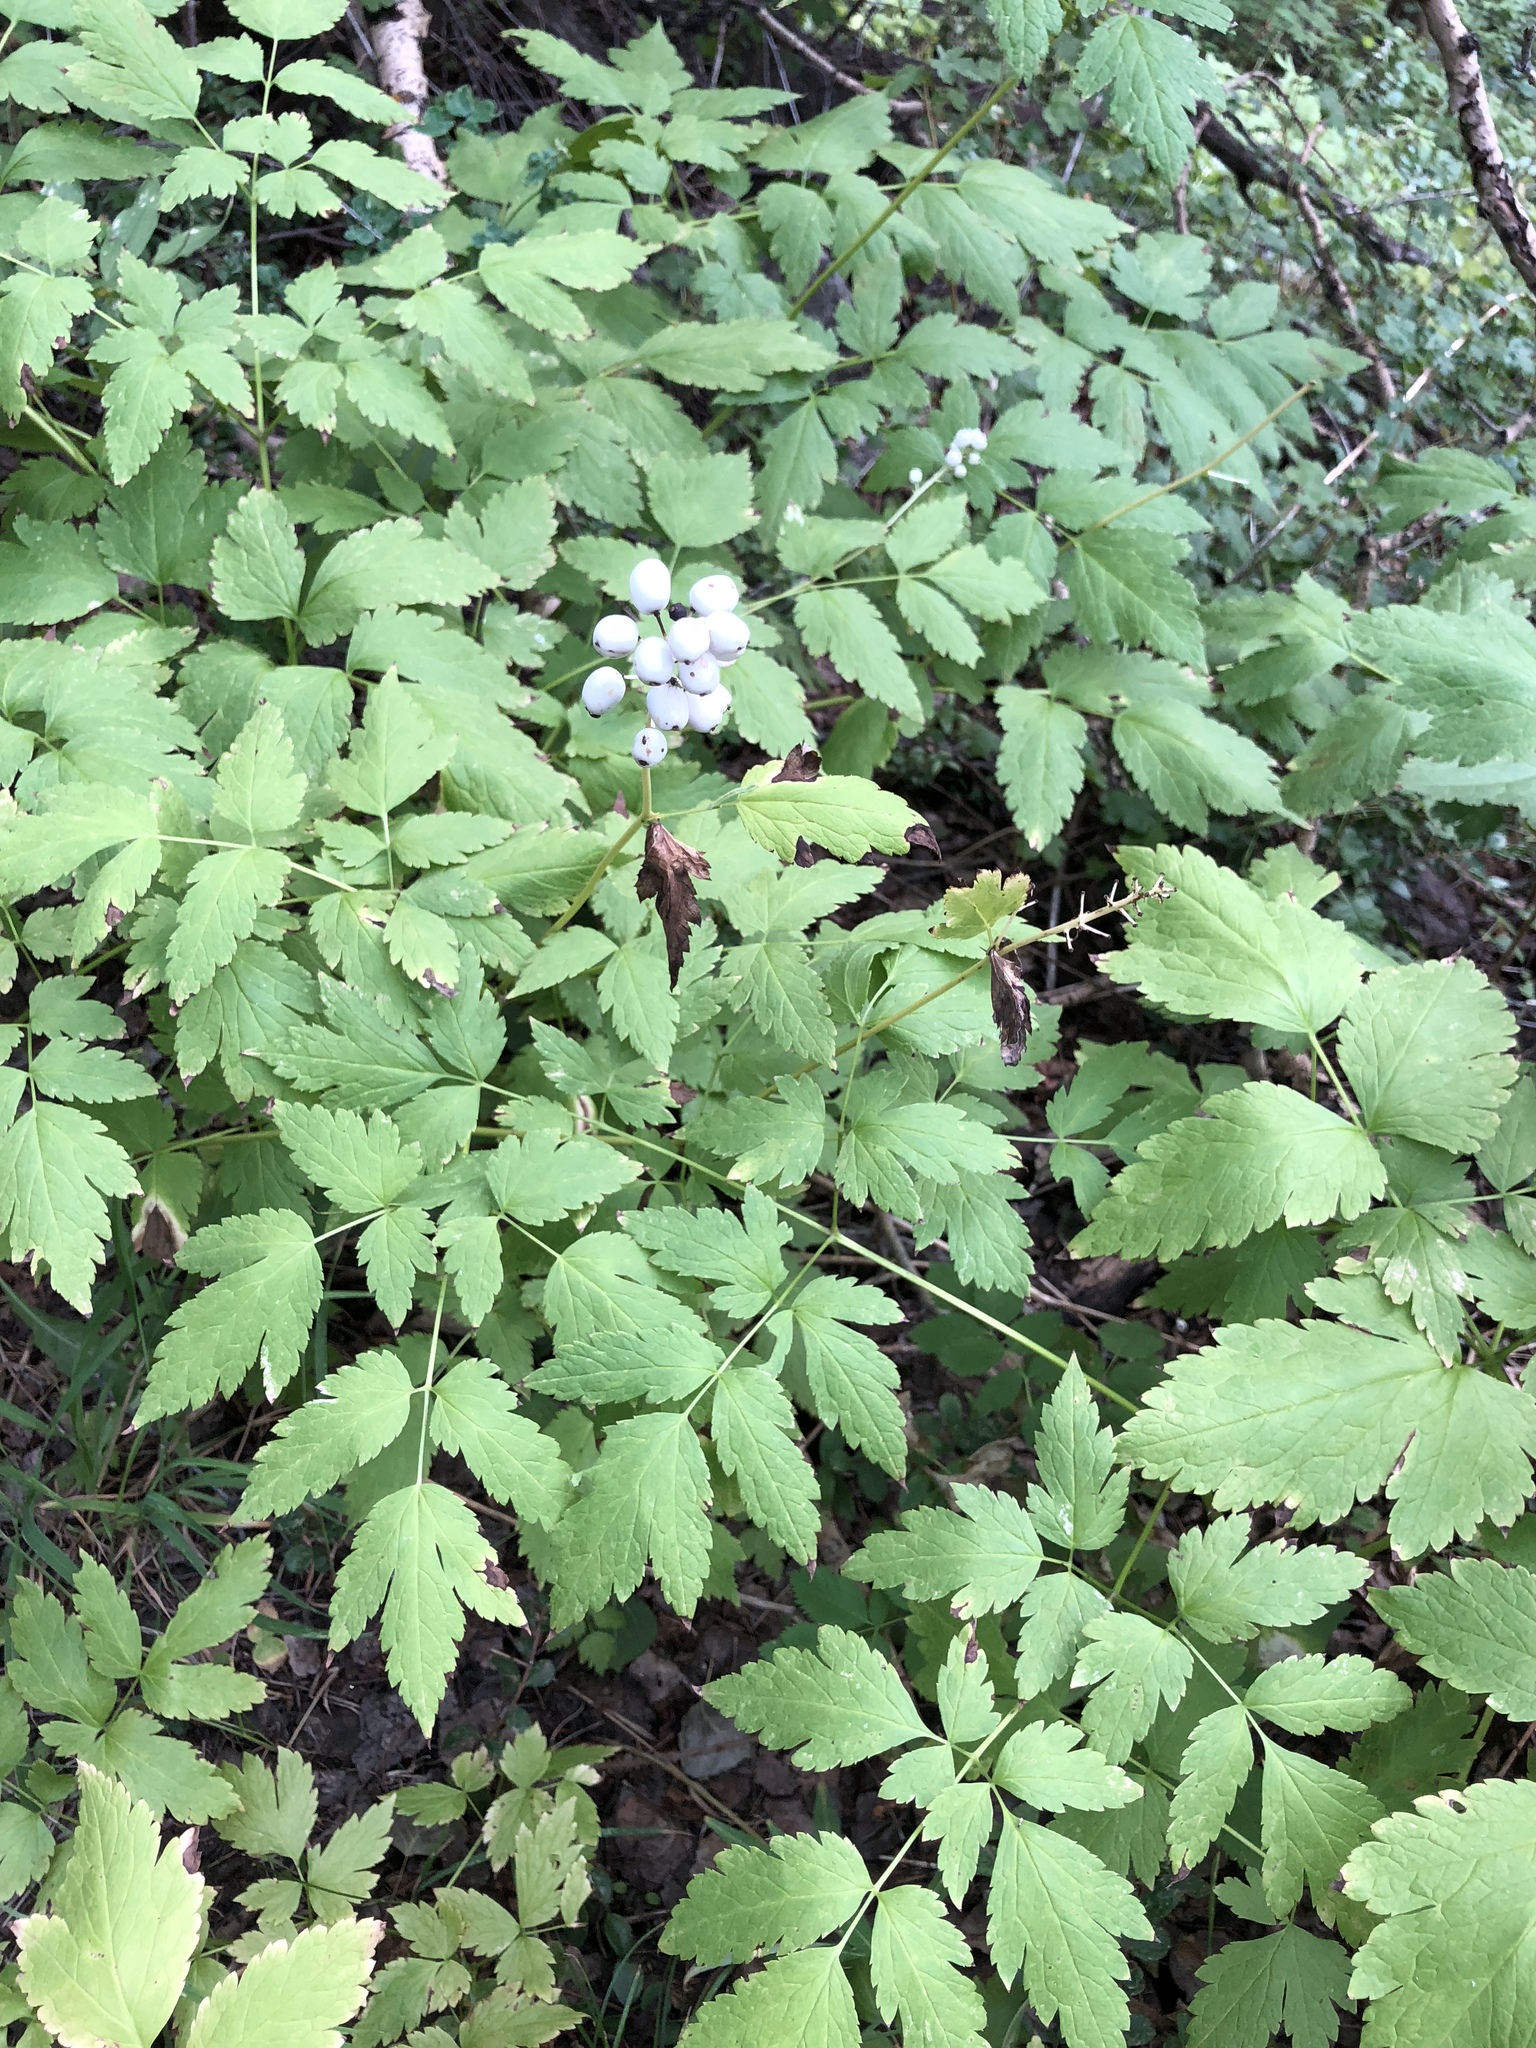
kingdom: Plantae
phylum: Tracheophyta
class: Magnoliopsida
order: Ranunculales
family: Ranunculaceae
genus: Actaea
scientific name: Actaea rubra
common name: Red baneberry
